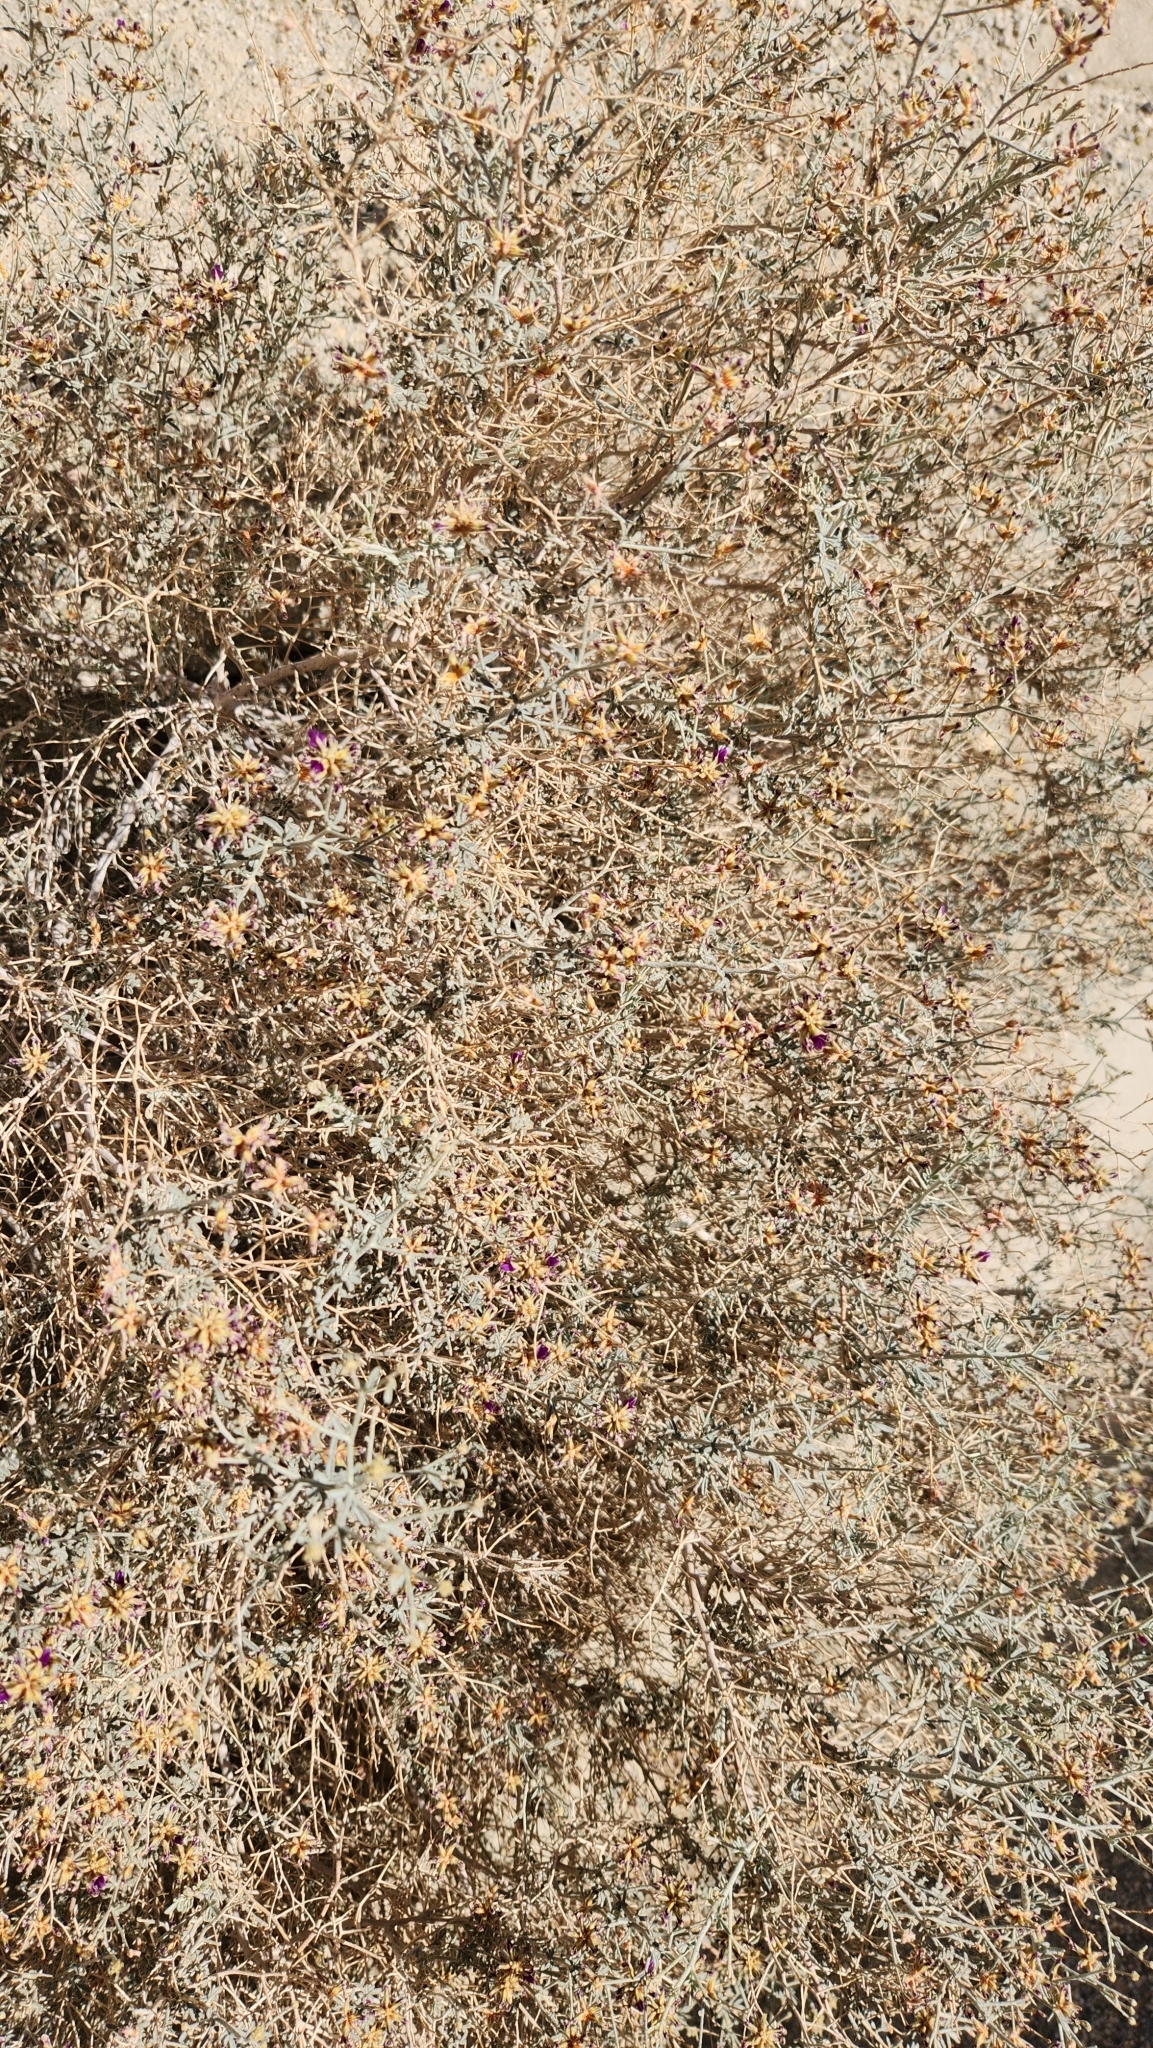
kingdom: Plantae
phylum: Tracheophyta
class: Magnoliopsida
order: Fabales
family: Fabaceae
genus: Psorothamnus
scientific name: Psorothamnus emoryi
